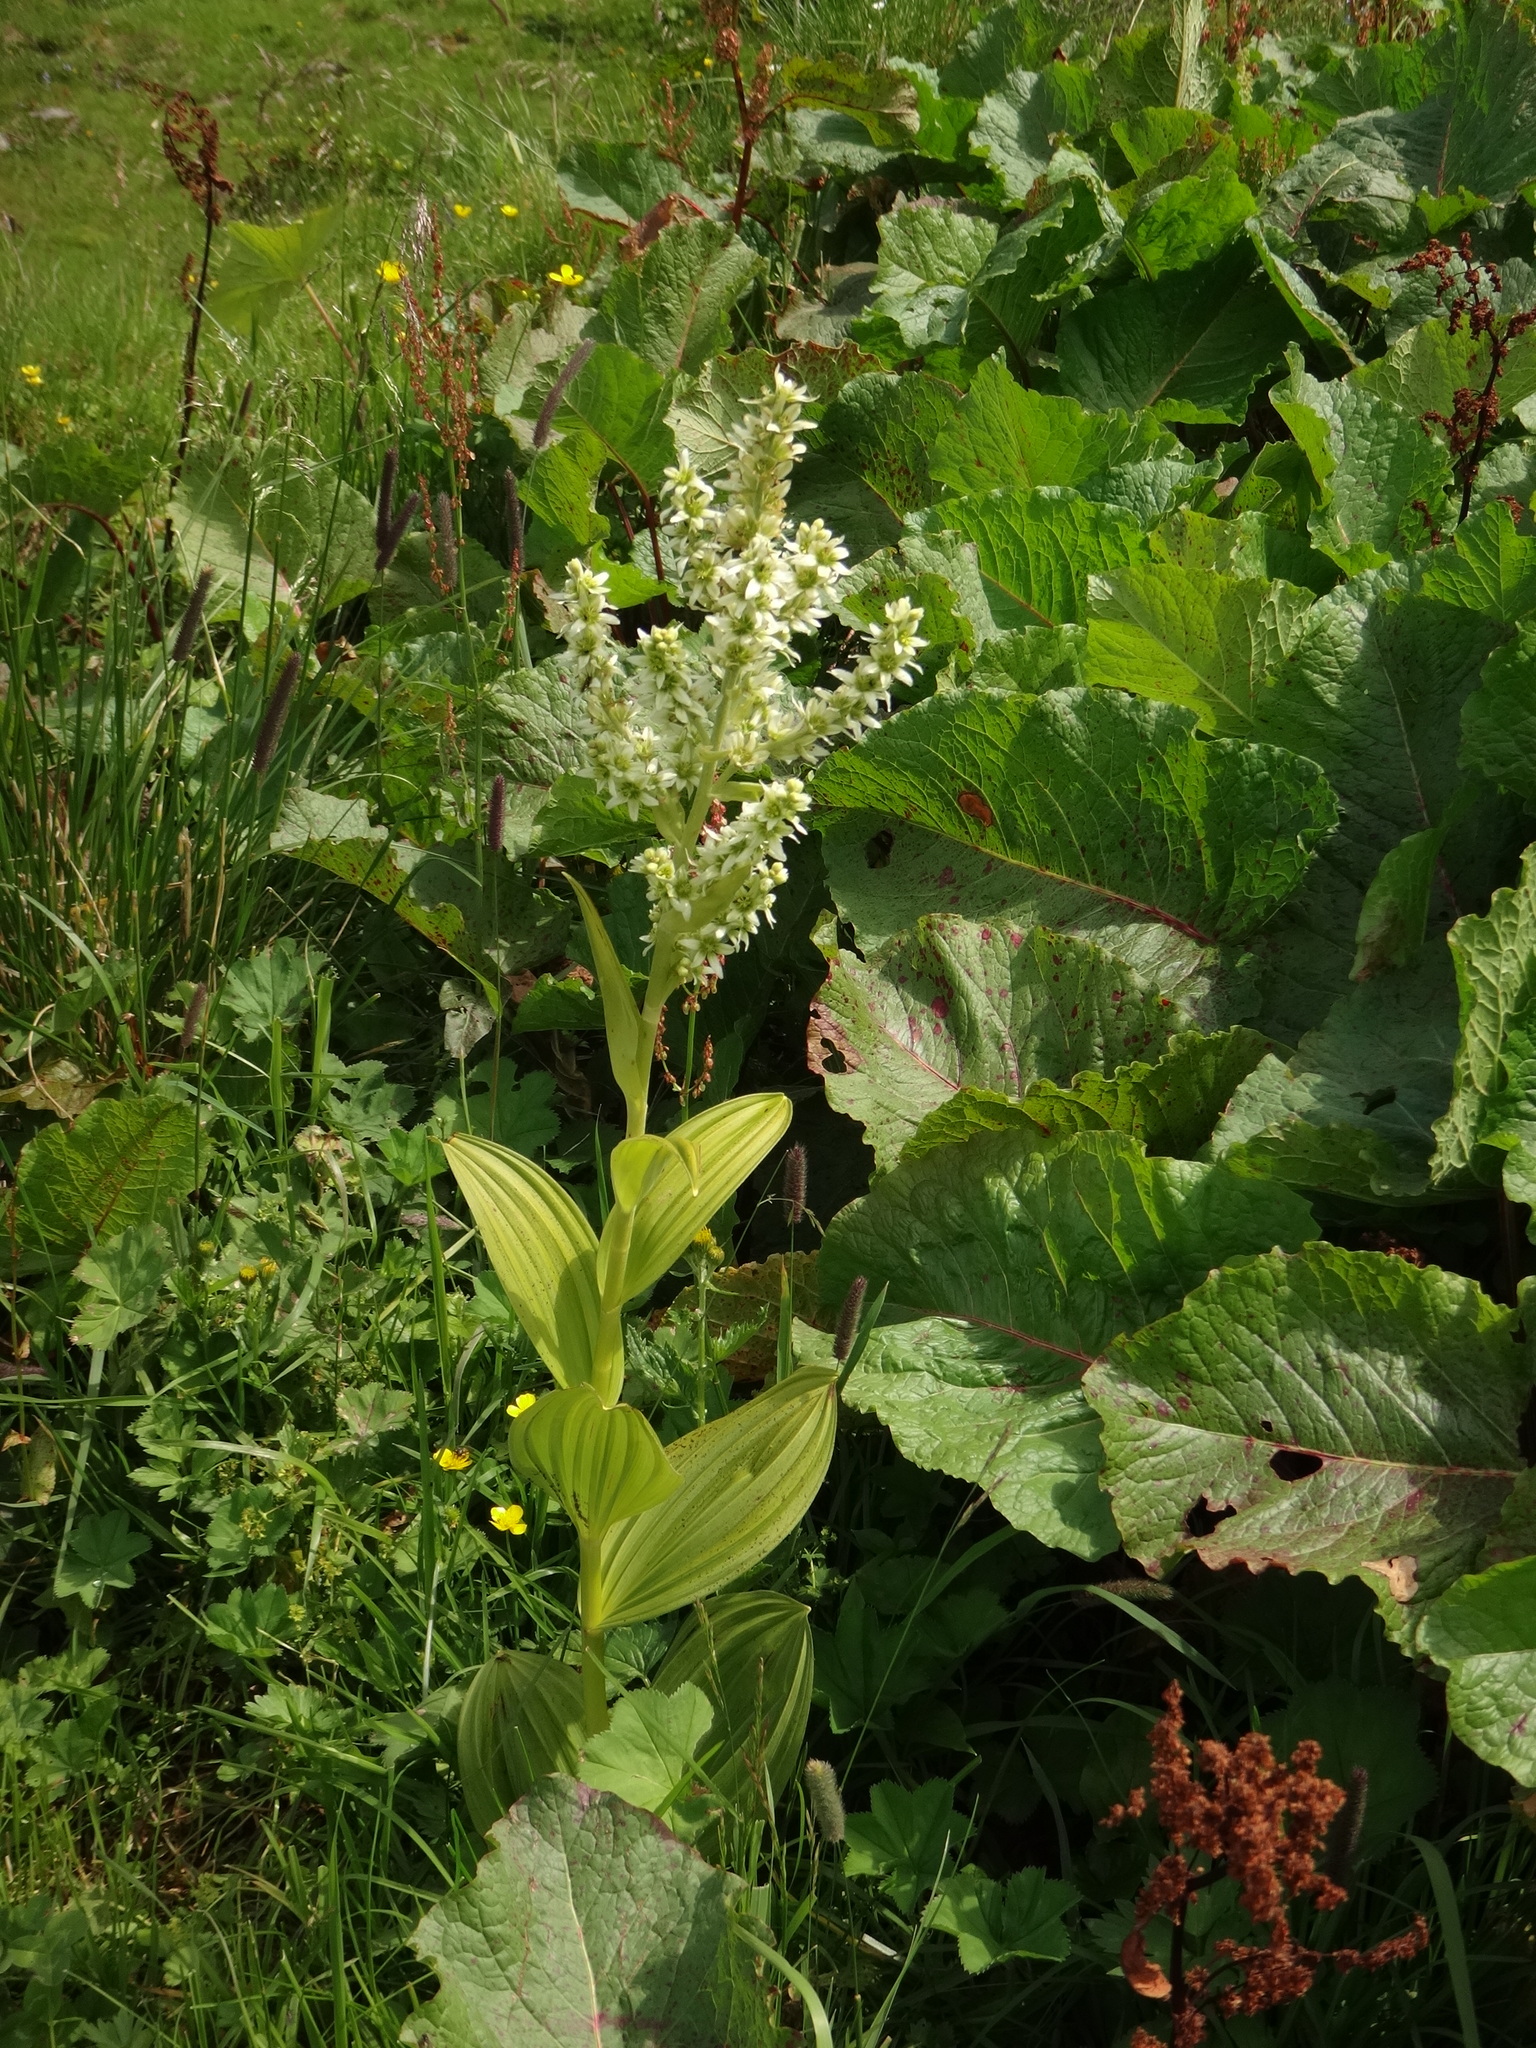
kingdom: Plantae
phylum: Tracheophyta
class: Liliopsida
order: Liliales
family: Melanthiaceae
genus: Veratrum
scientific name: Veratrum album
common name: White veratrum
